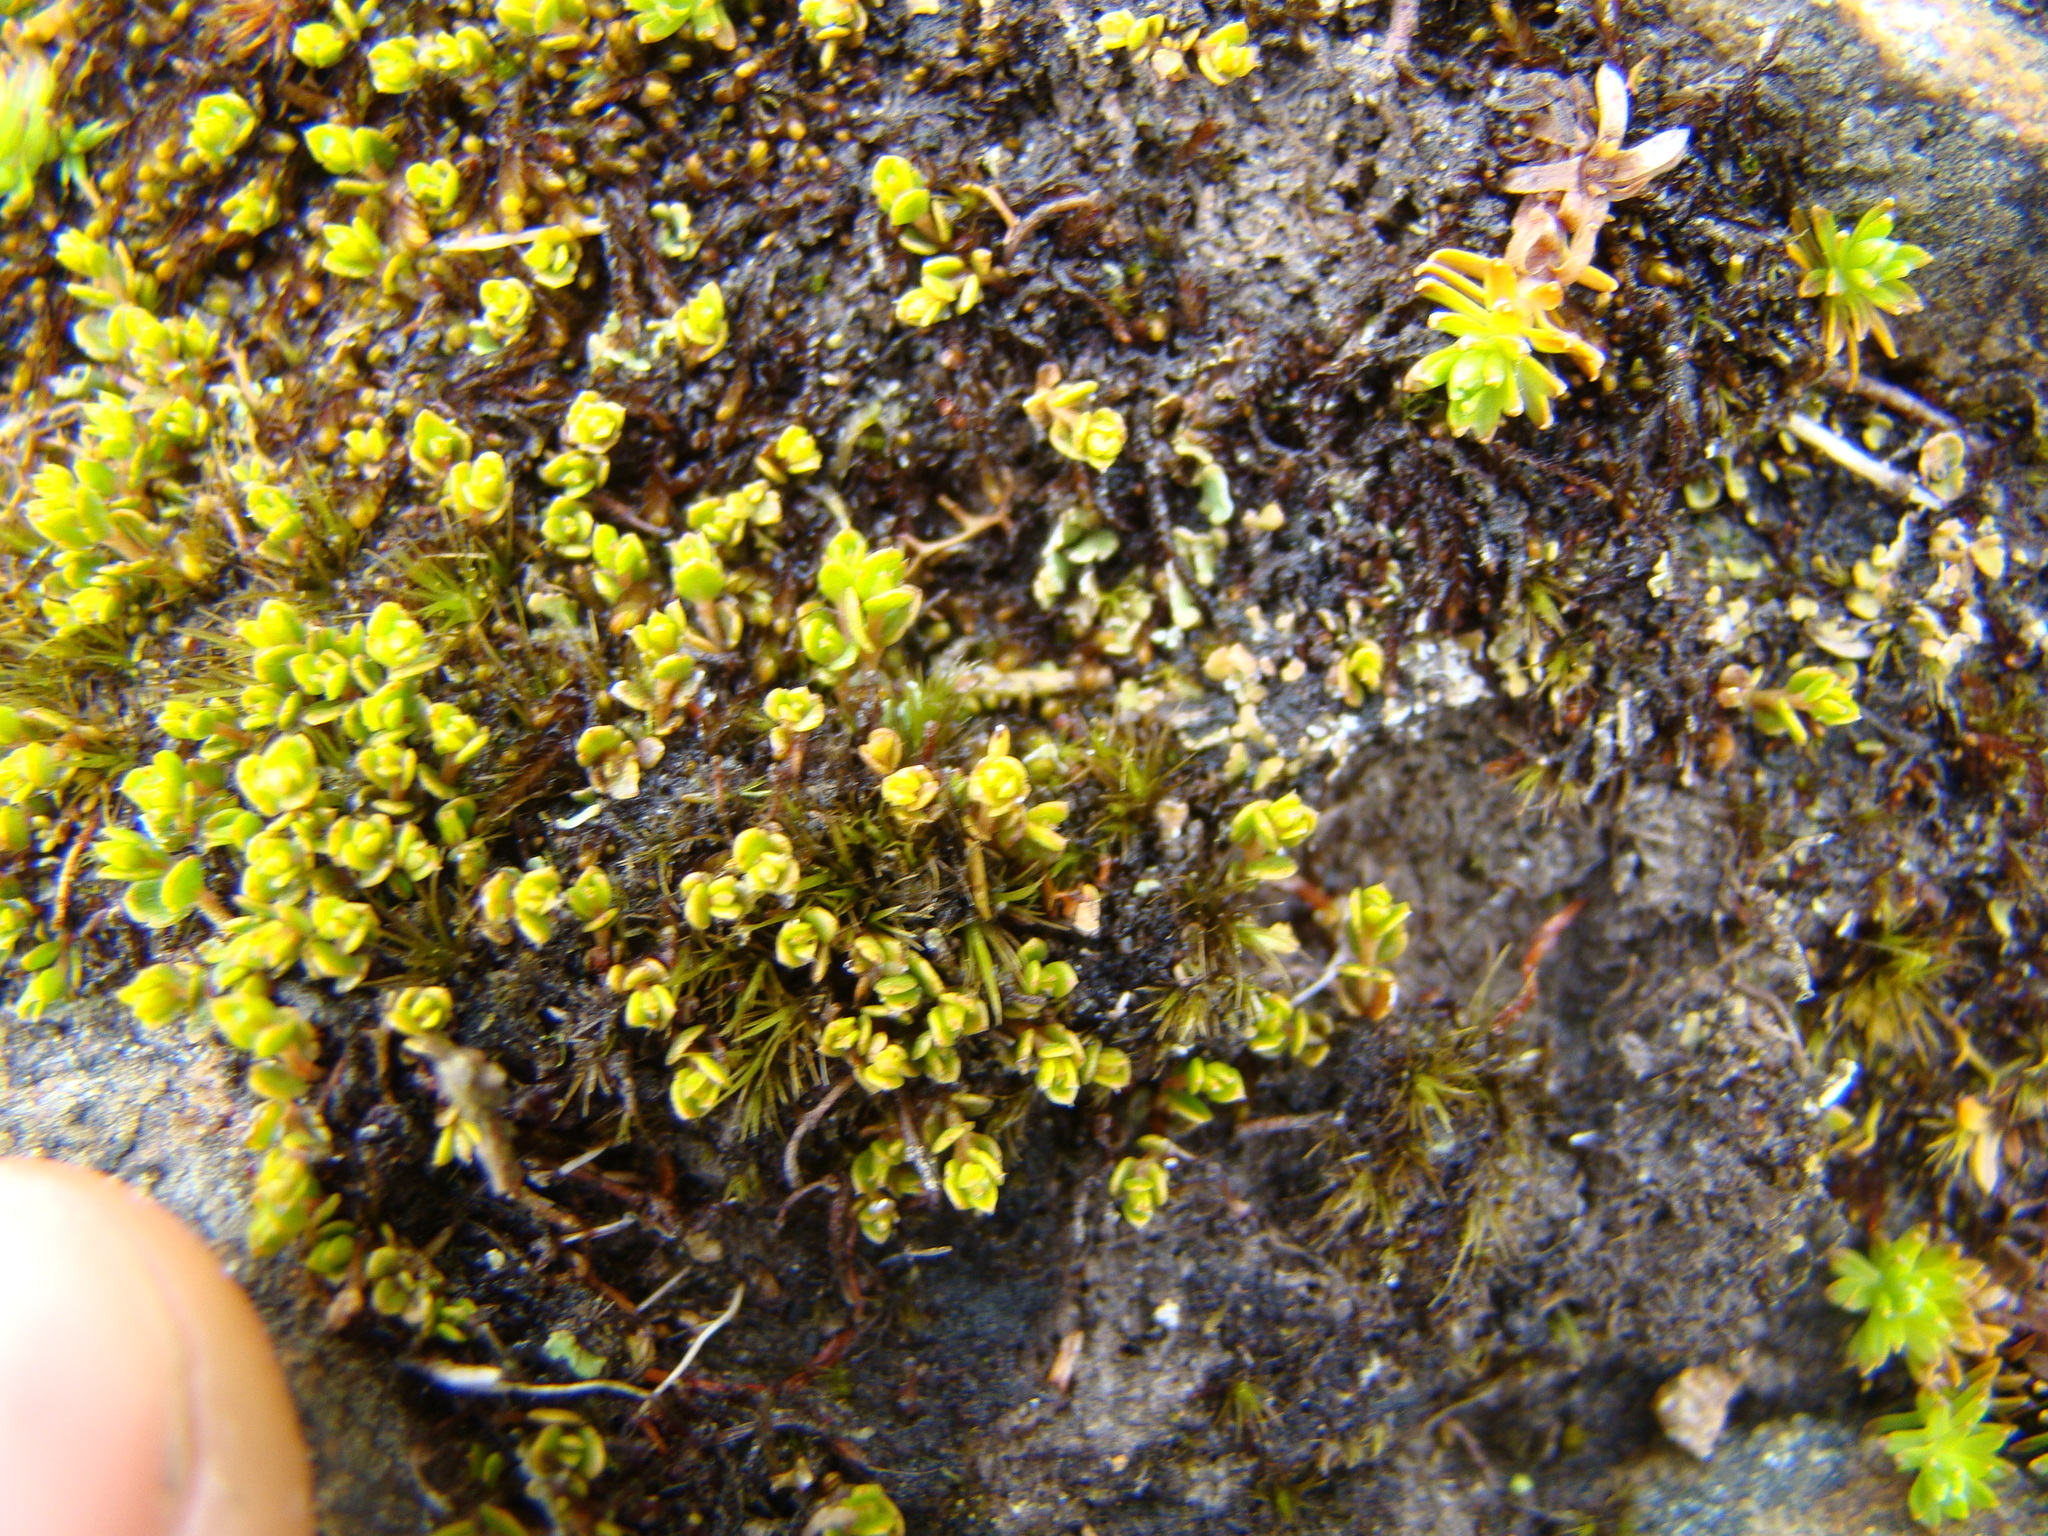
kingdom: Plantae
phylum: Tracheophyta
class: Magnoliopsida
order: Asterales
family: Asteraceae
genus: Raoulia
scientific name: Raoulia glabra
